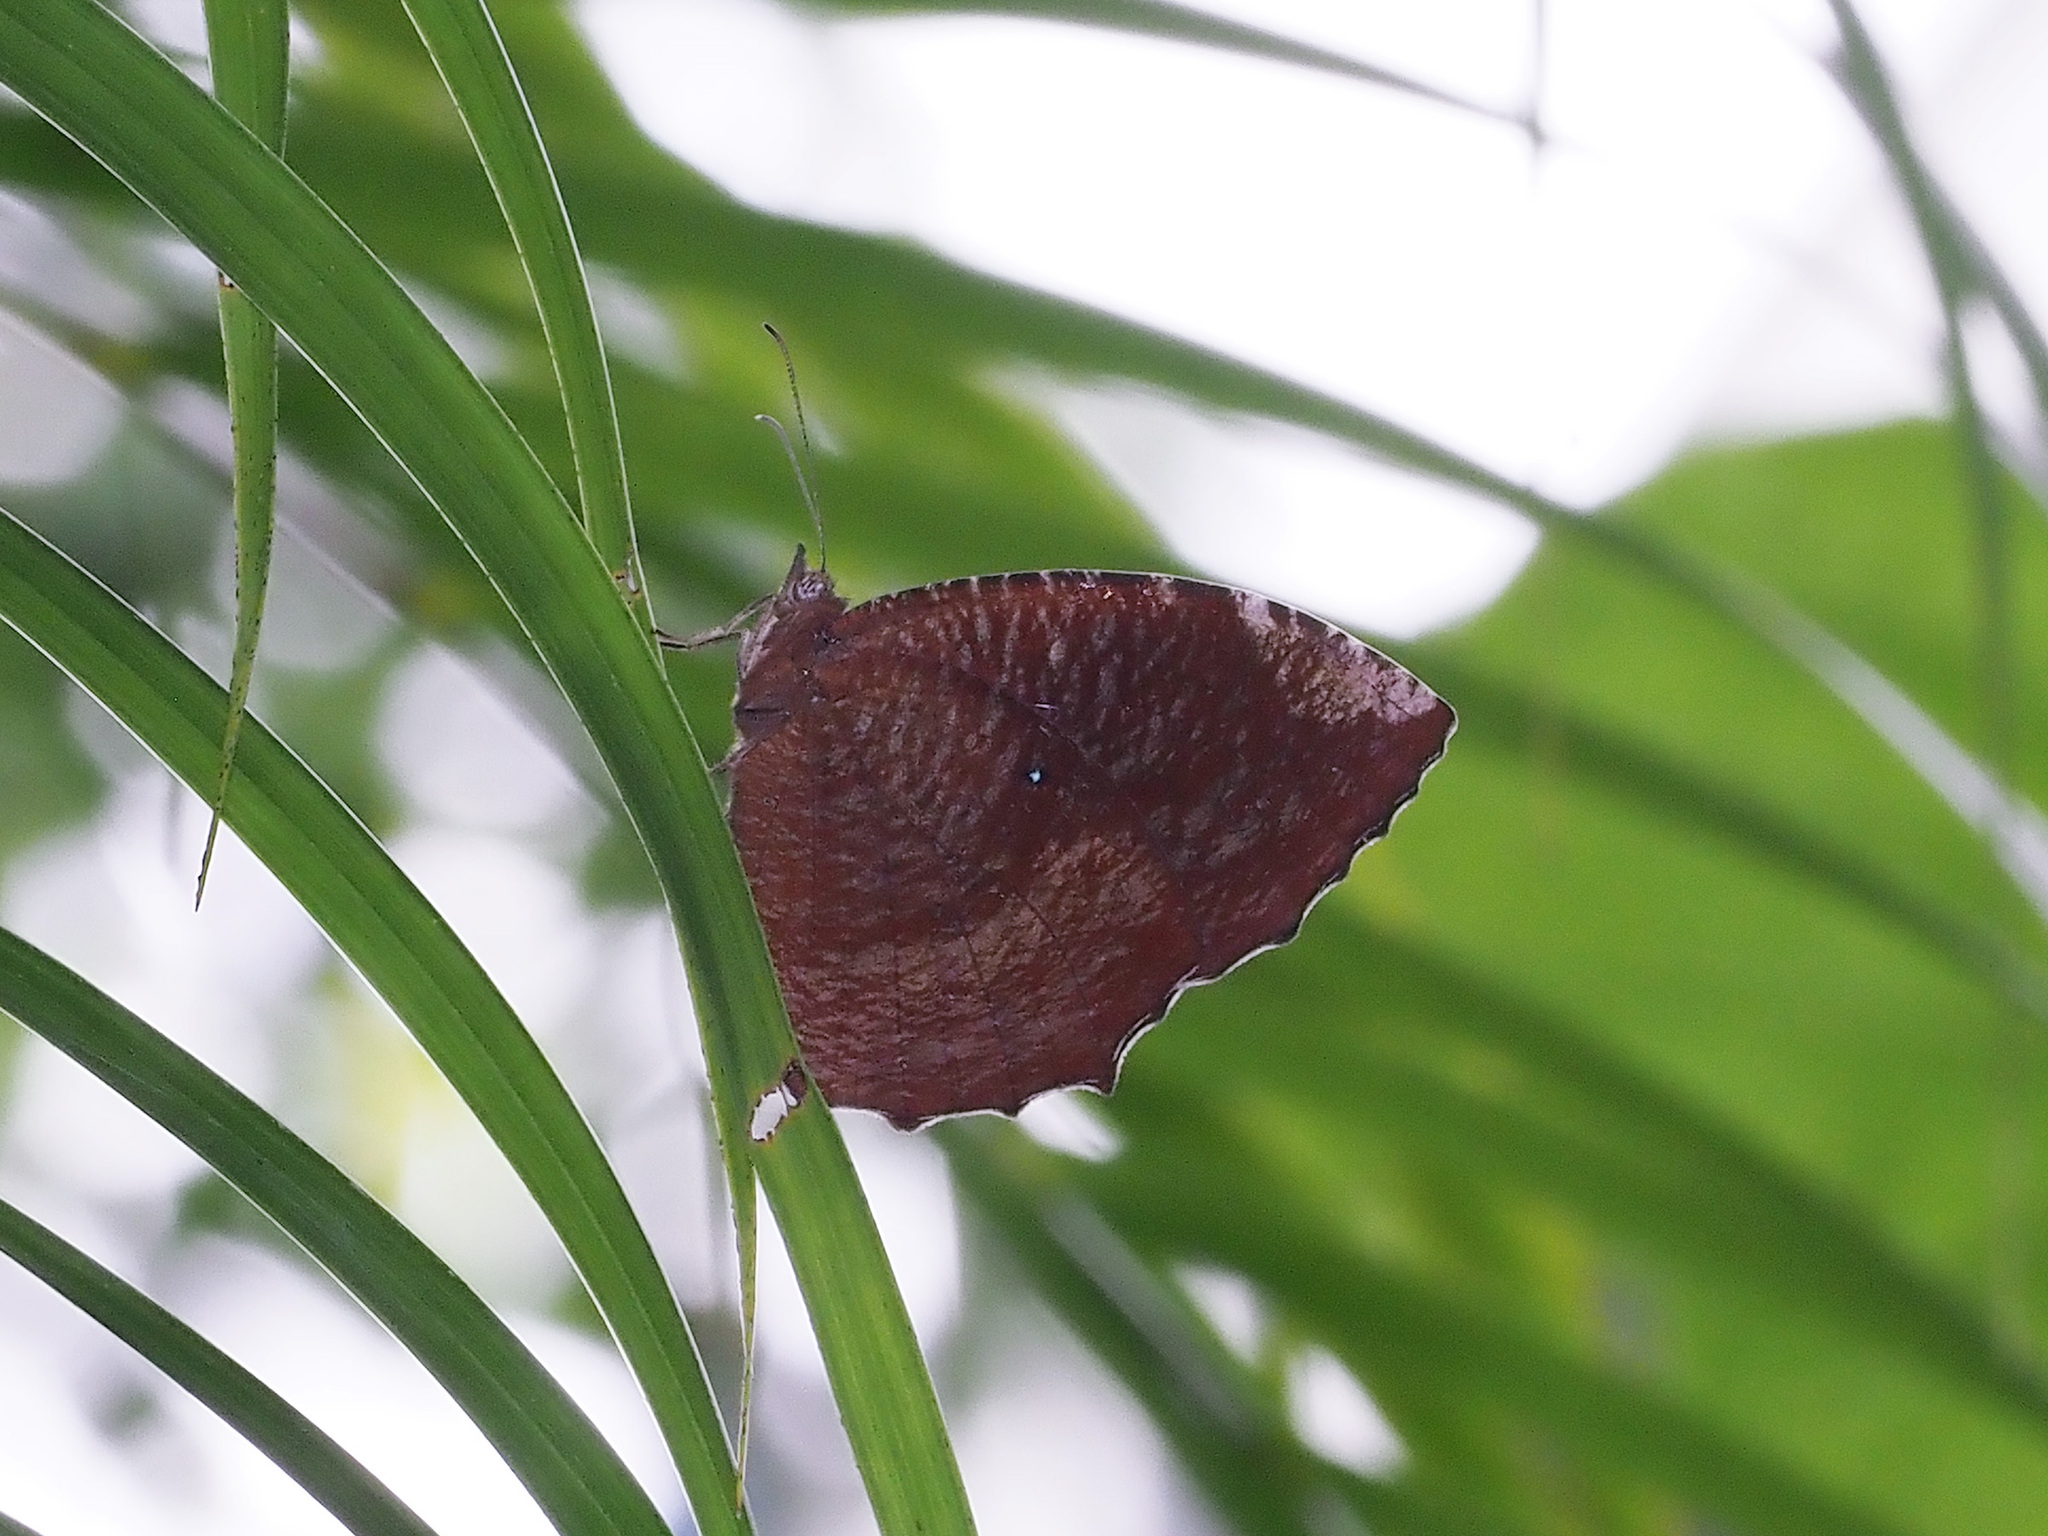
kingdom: Animalia
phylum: Arthropoda
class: Insecta
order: Lepidoptera
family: Nymphalidae
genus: Elymnias
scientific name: Elymnias hypermnestra
